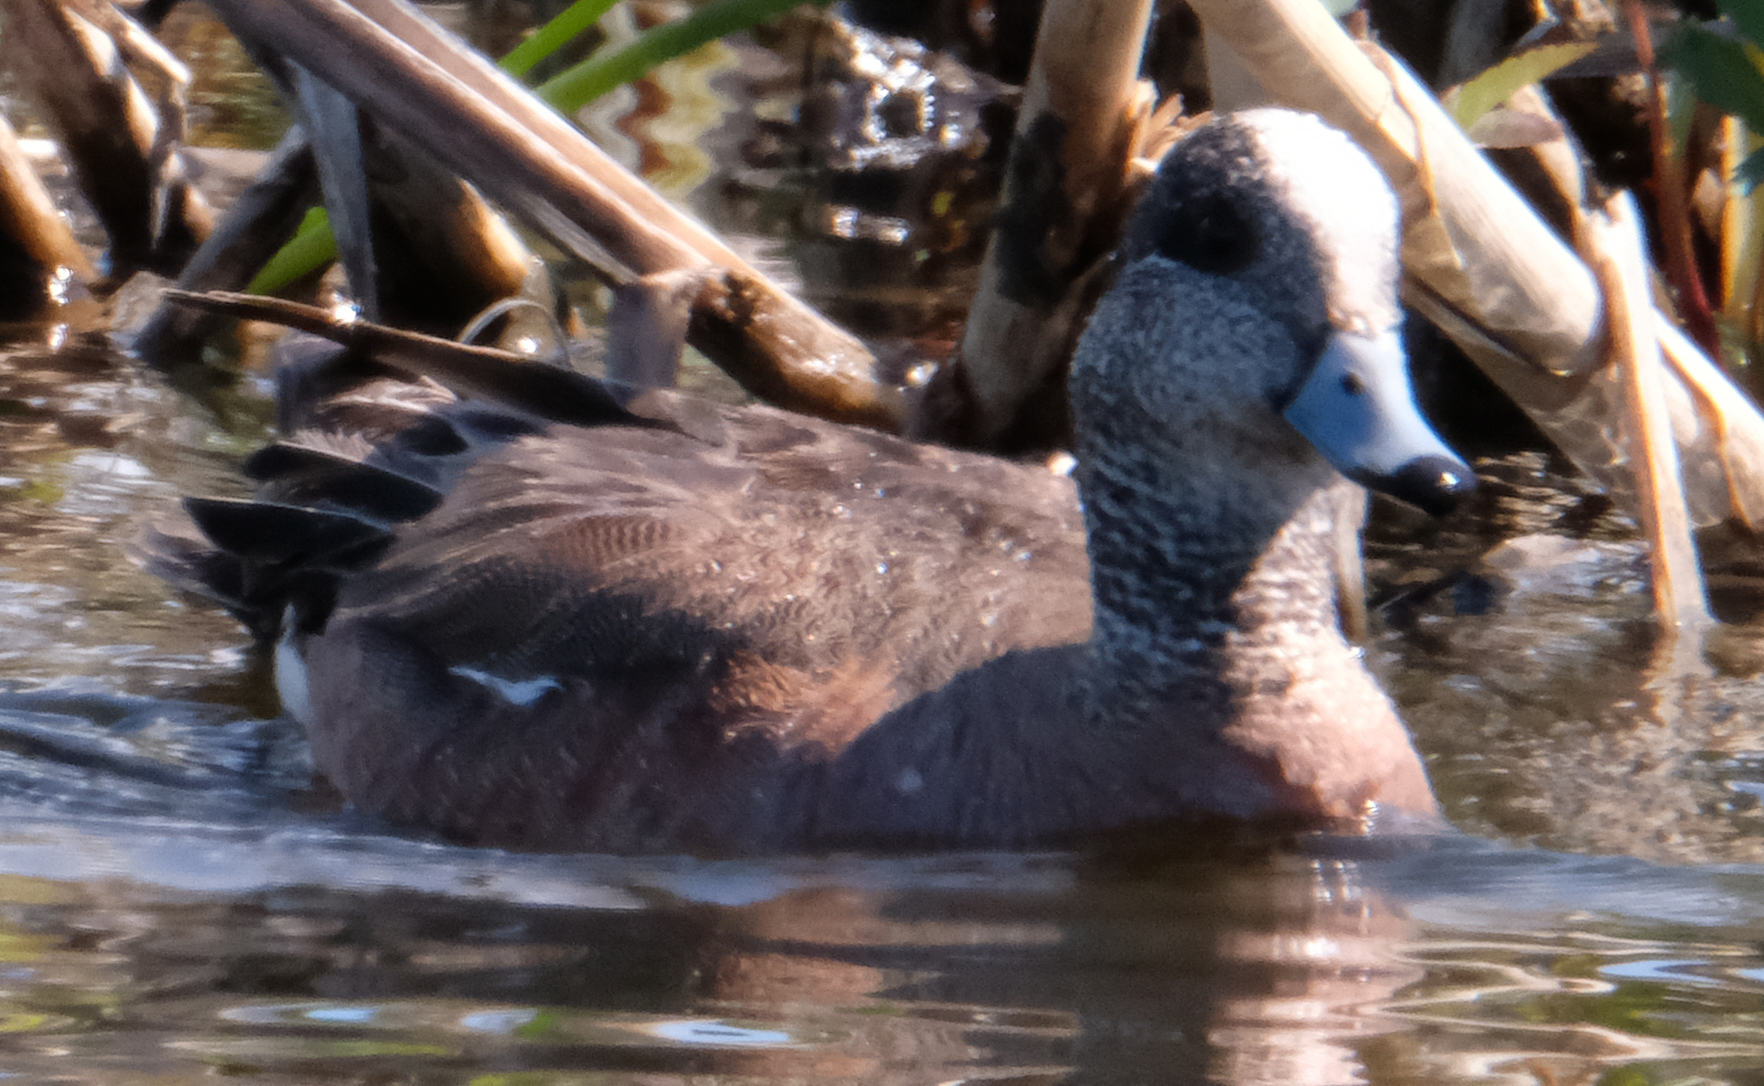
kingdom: Animalia
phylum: Chordata
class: Aves
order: Anseriformes
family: Anatidae
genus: Mareca
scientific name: Mareca americana
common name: American wigeon
